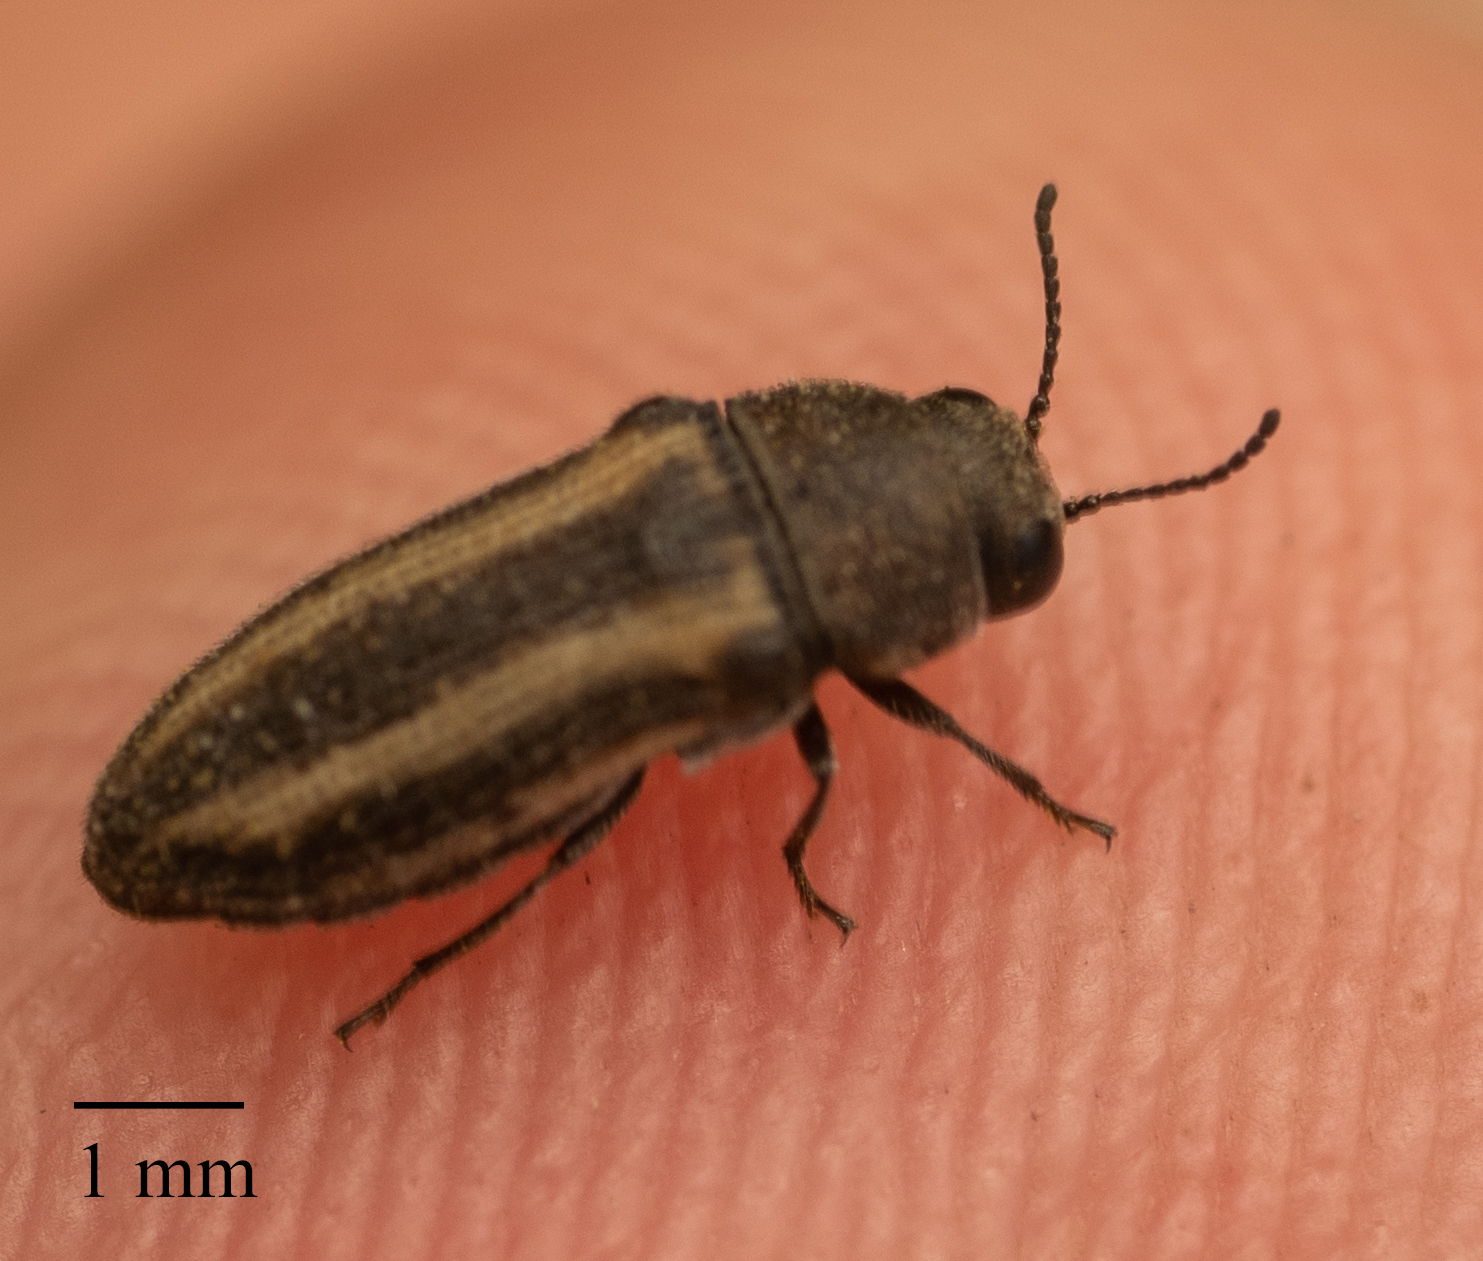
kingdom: Animalia
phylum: Arthropoda
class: Insecta
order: Coleoptera
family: Buprestidae
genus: Acmaeodera
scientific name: Acmaeodera quadrivittata
